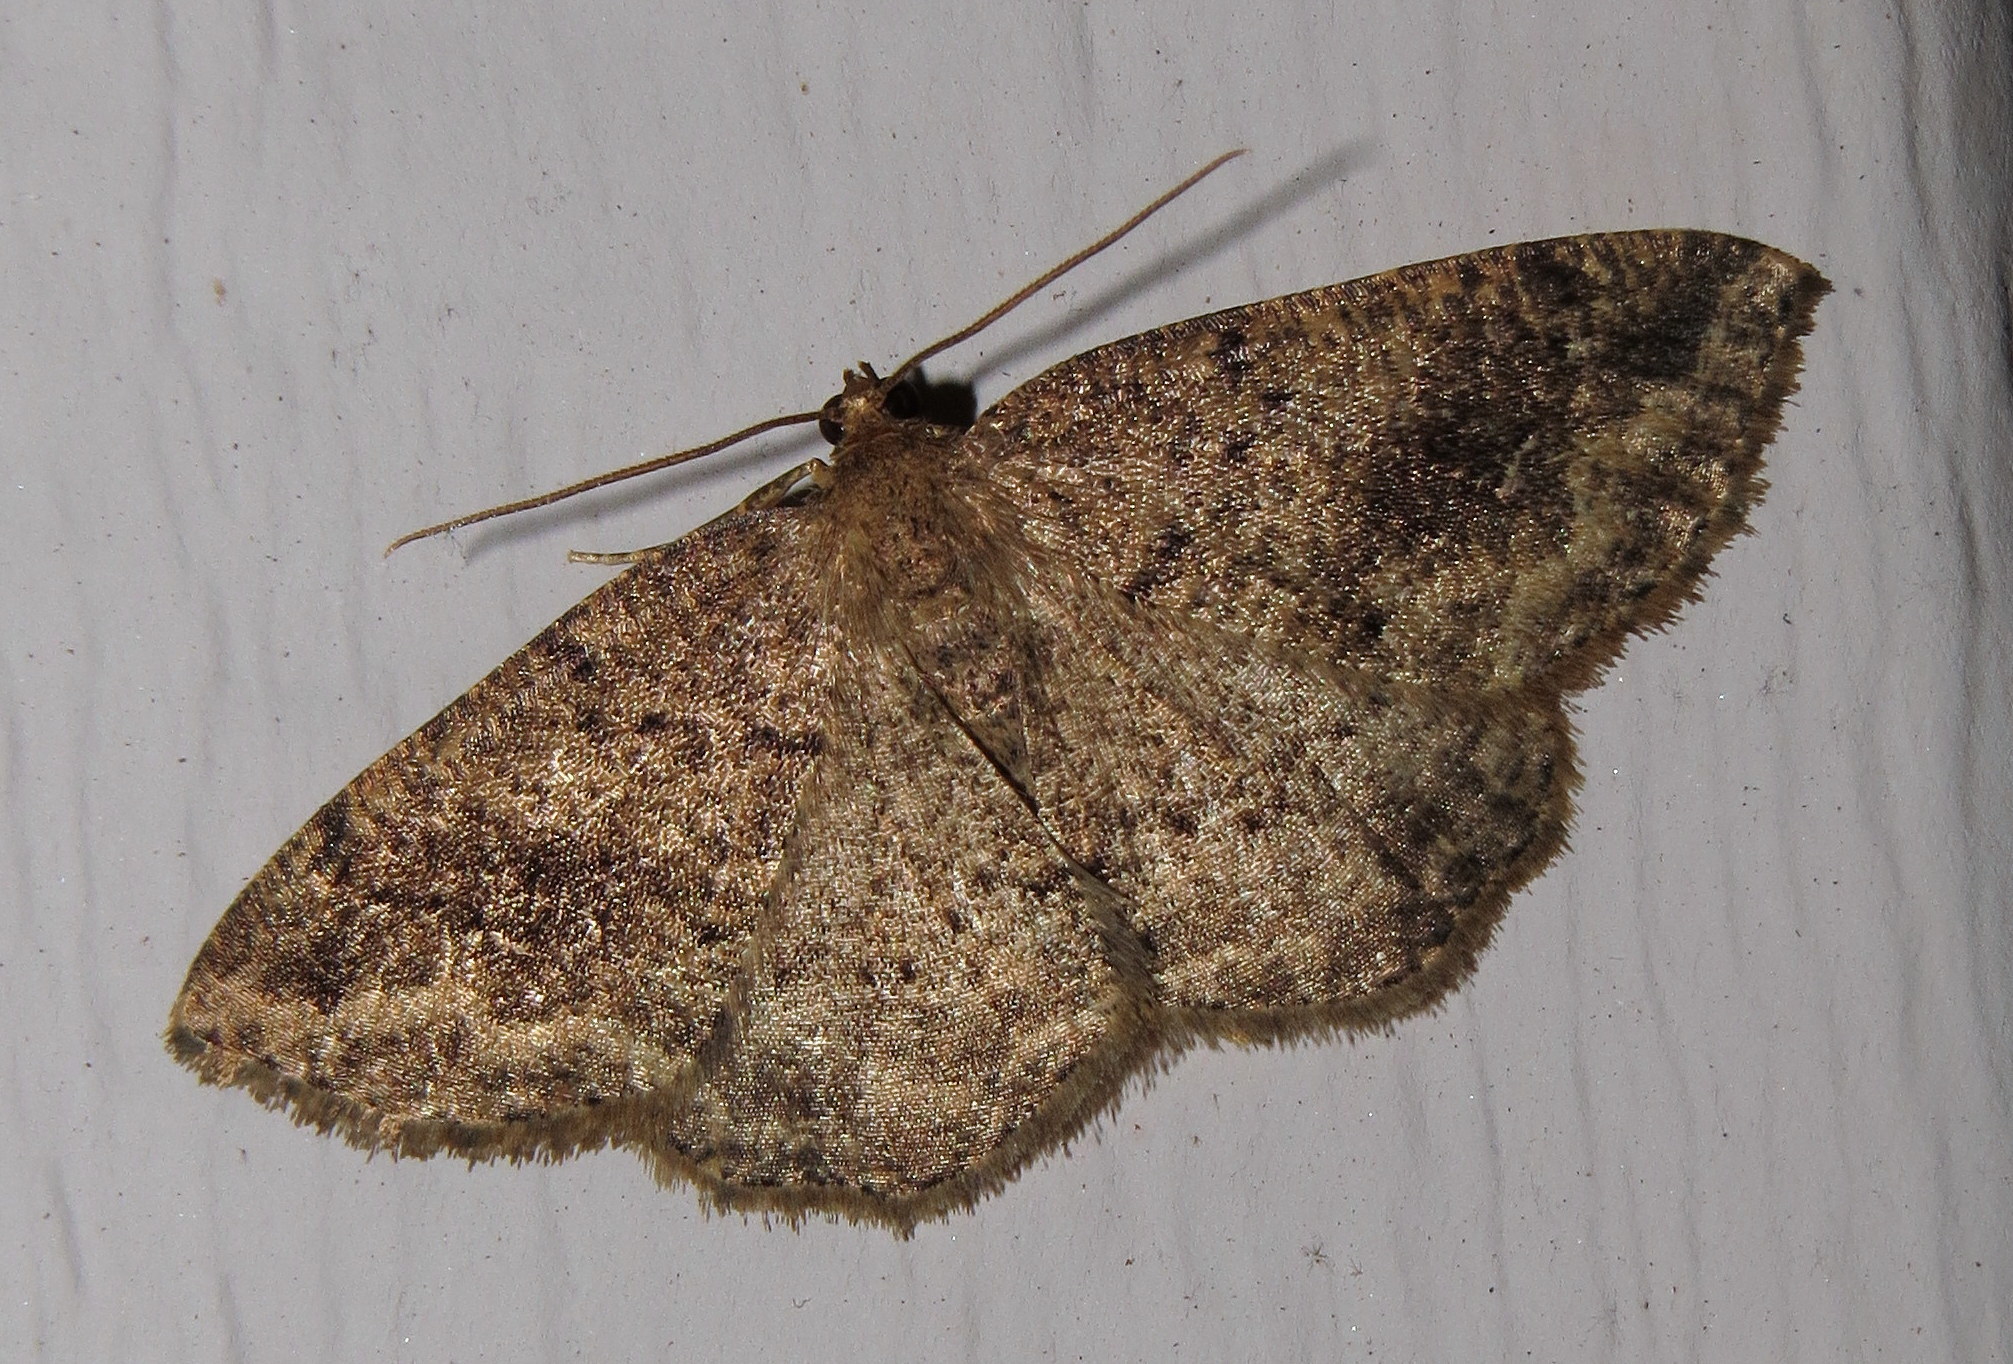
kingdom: Animalia
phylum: Arthropoda
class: Insecta
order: Lepidoptera
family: Geometridae
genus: Homochlodes
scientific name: Homochlodes fritillaria
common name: Pale homochlodes
